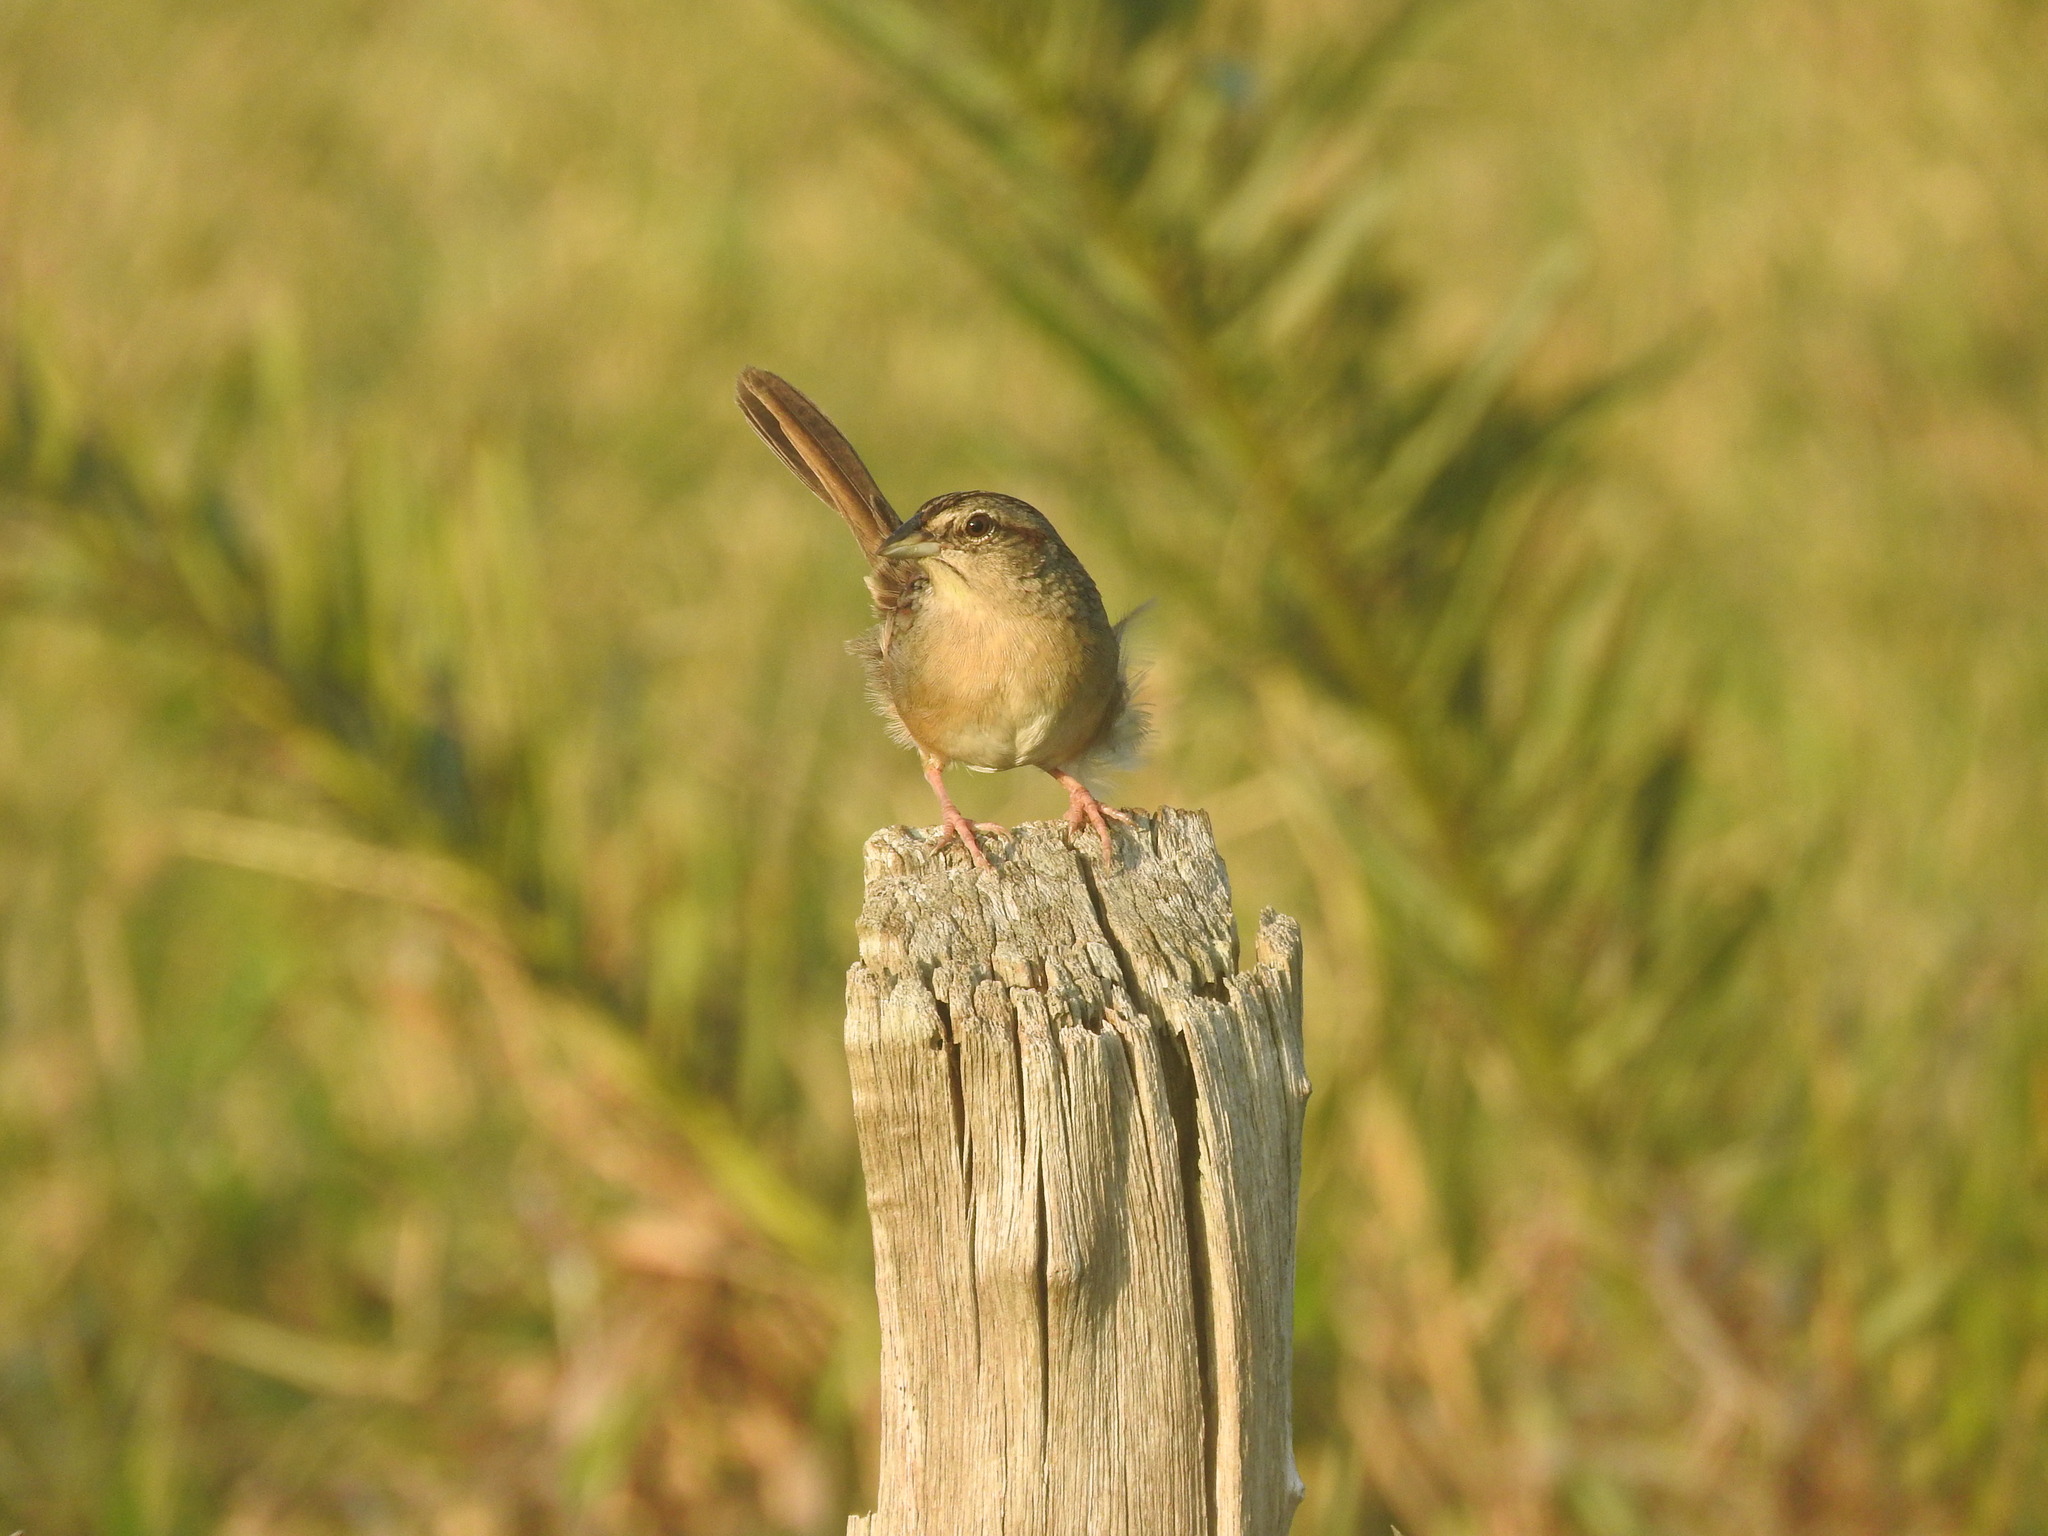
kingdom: Animalia
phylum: Chordata
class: Aves
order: Passeriformes
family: Passerellidae
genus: Peucaea
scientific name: Peucaea botterii
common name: Botteri's sparrow
